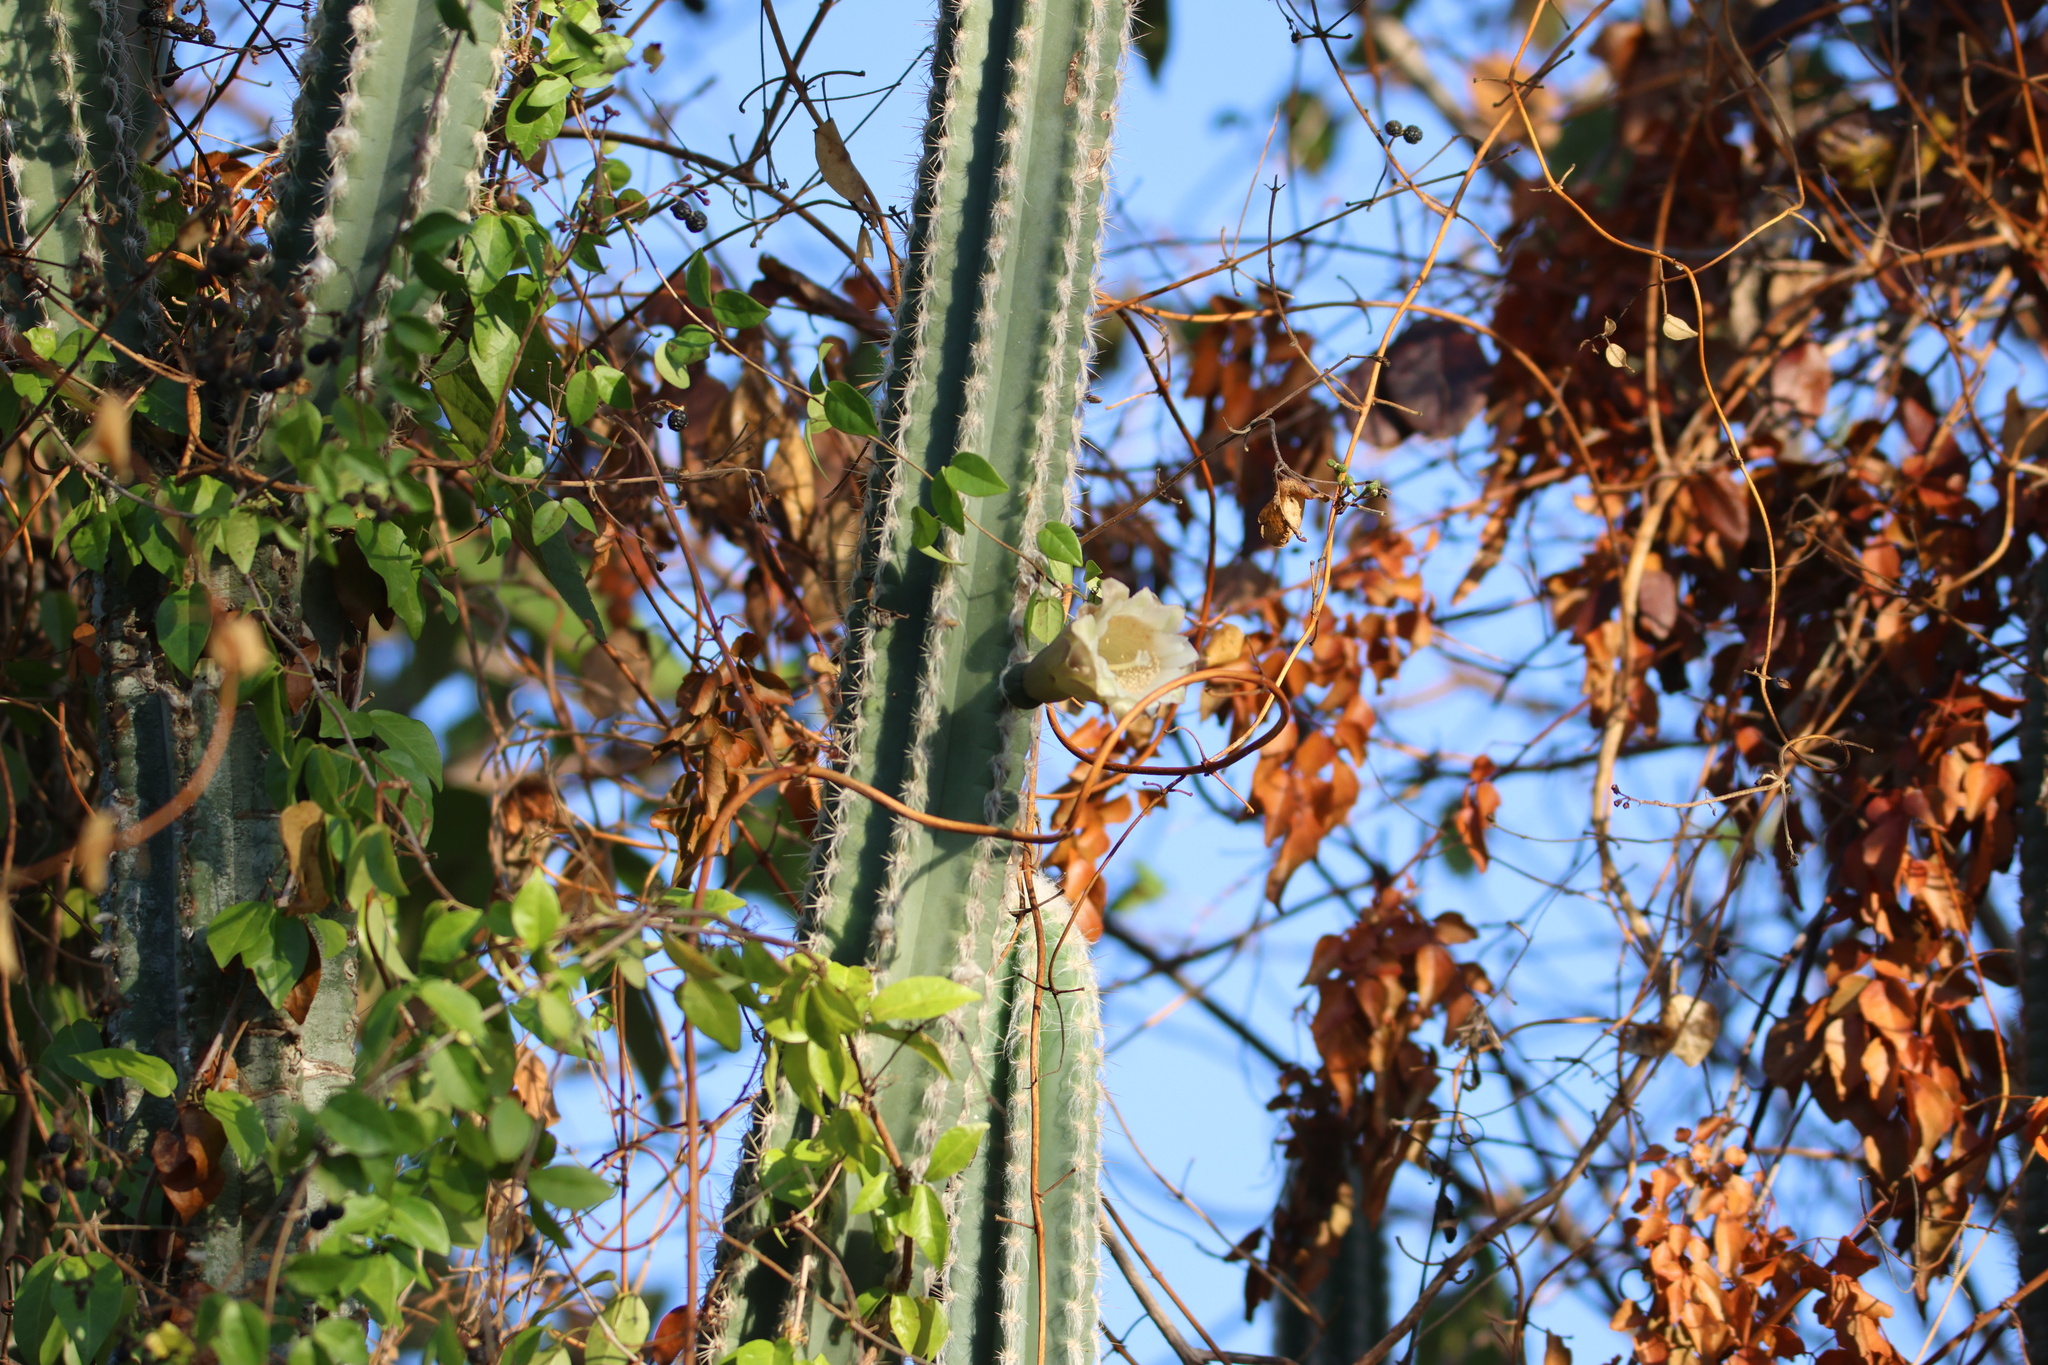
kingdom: Plantae
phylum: Tracheophyta
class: Magnoliopsida
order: Caryophyllales
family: Cactaceae
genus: Pilosocereus
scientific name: Pilosocereus polygonus
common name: Key tree cactus
